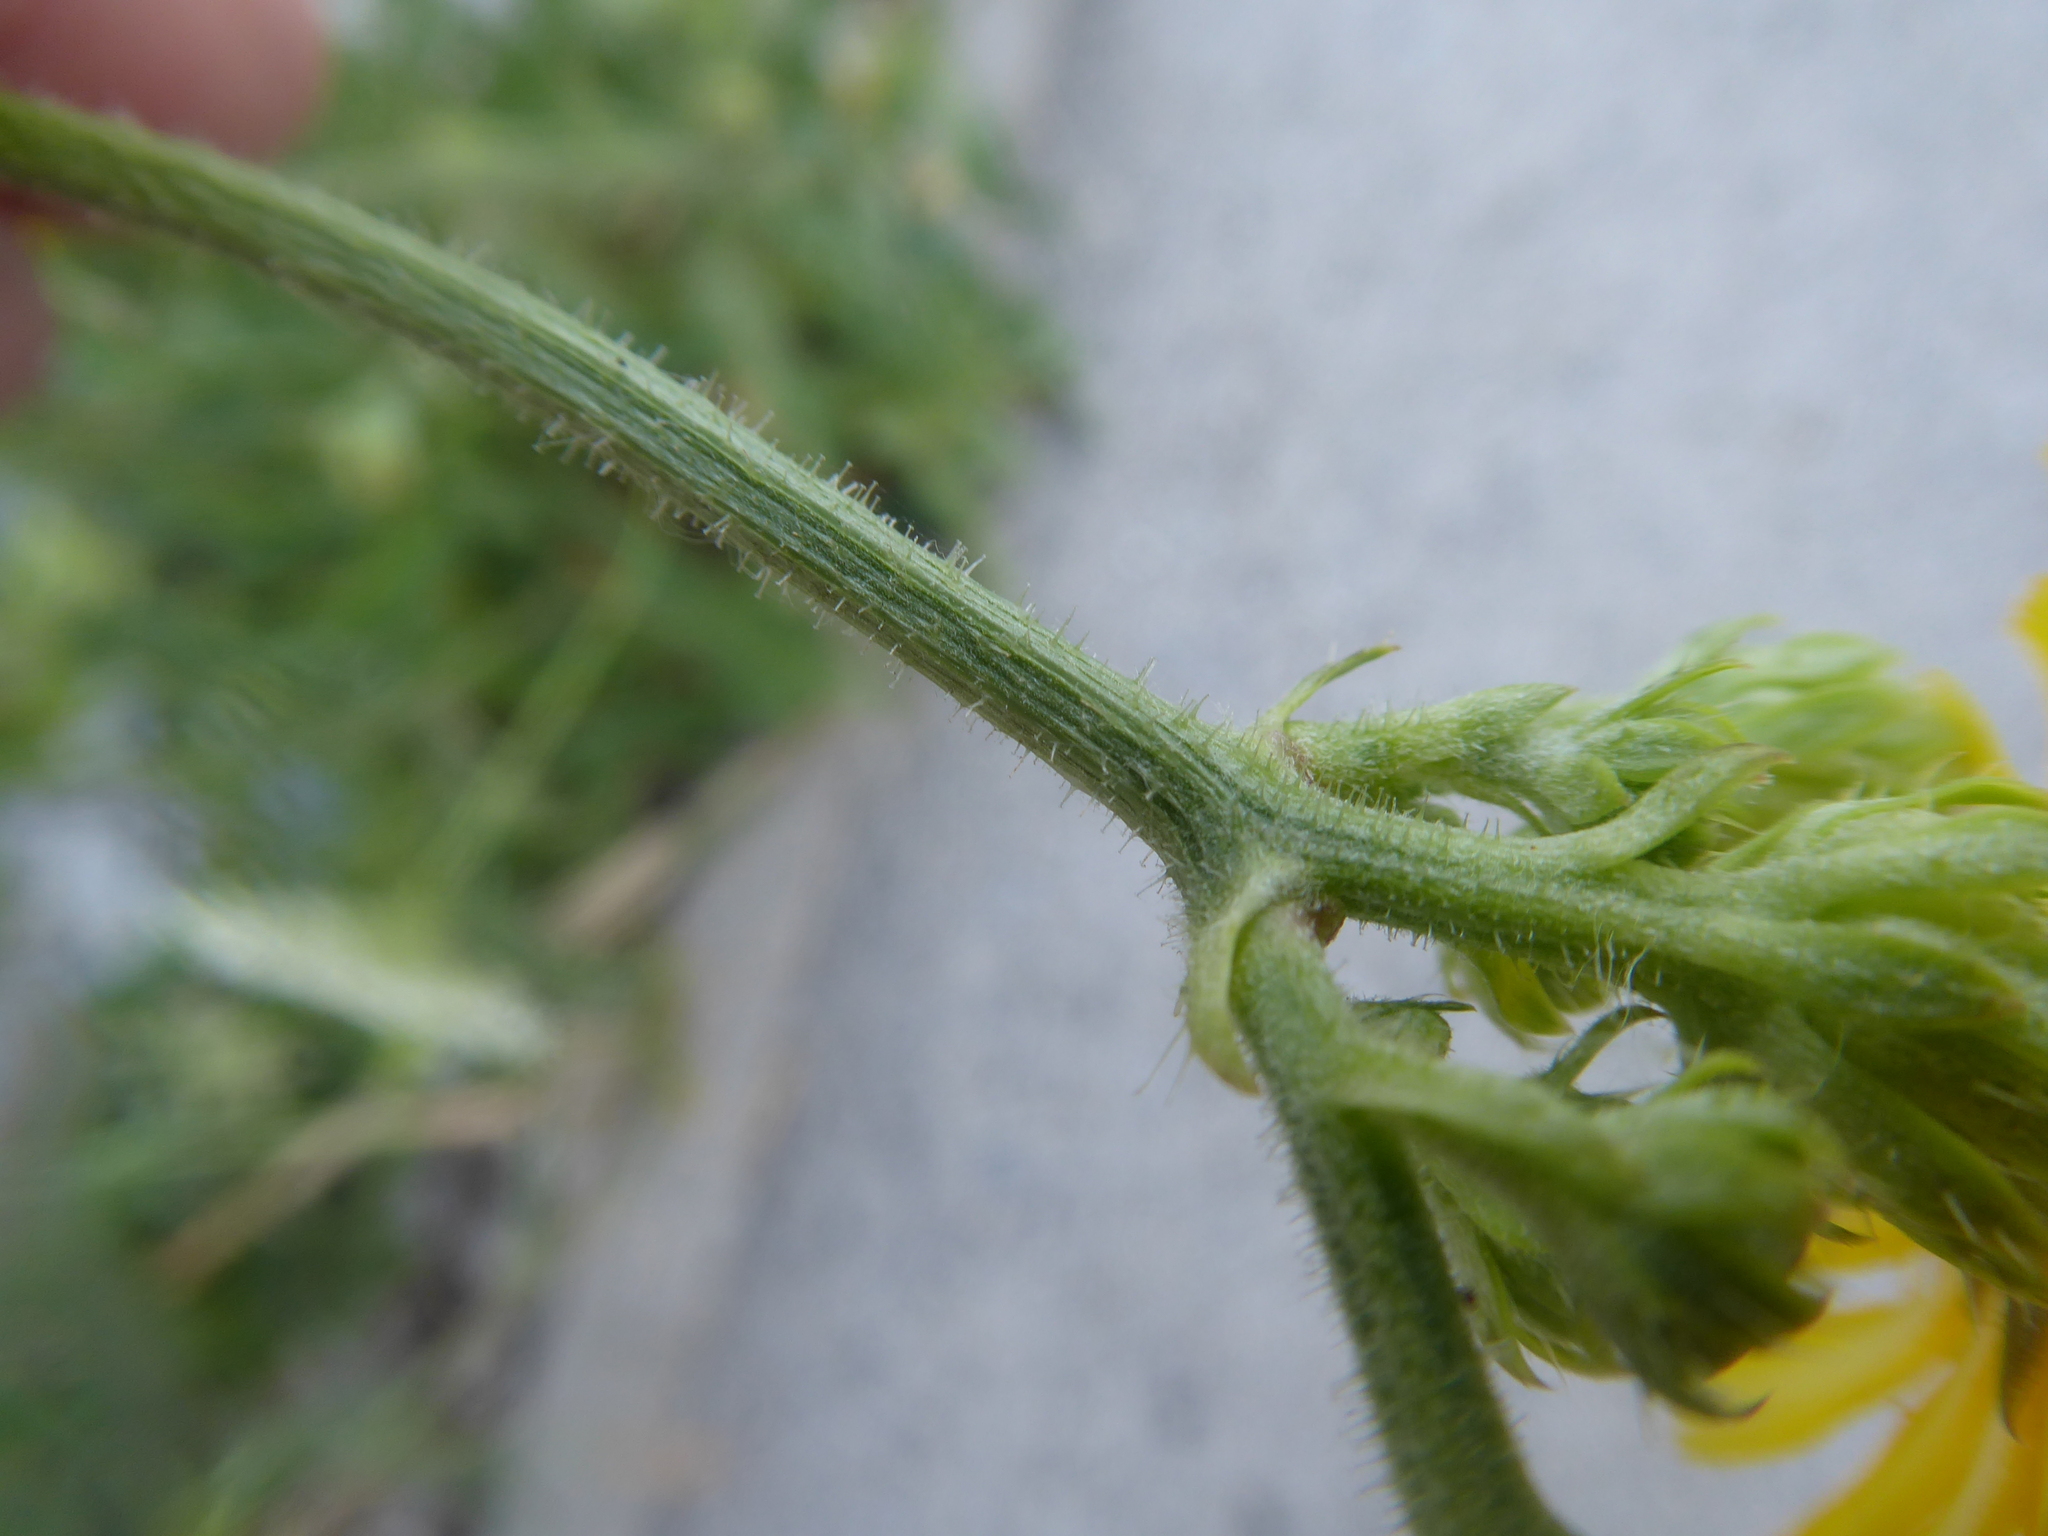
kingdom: Plantae
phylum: Tracheophyta
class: Magnoliopsida
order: Asterales
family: Asteraceae
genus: Picris
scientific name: Picris hieracioides
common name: Hawkweed oxtongue
